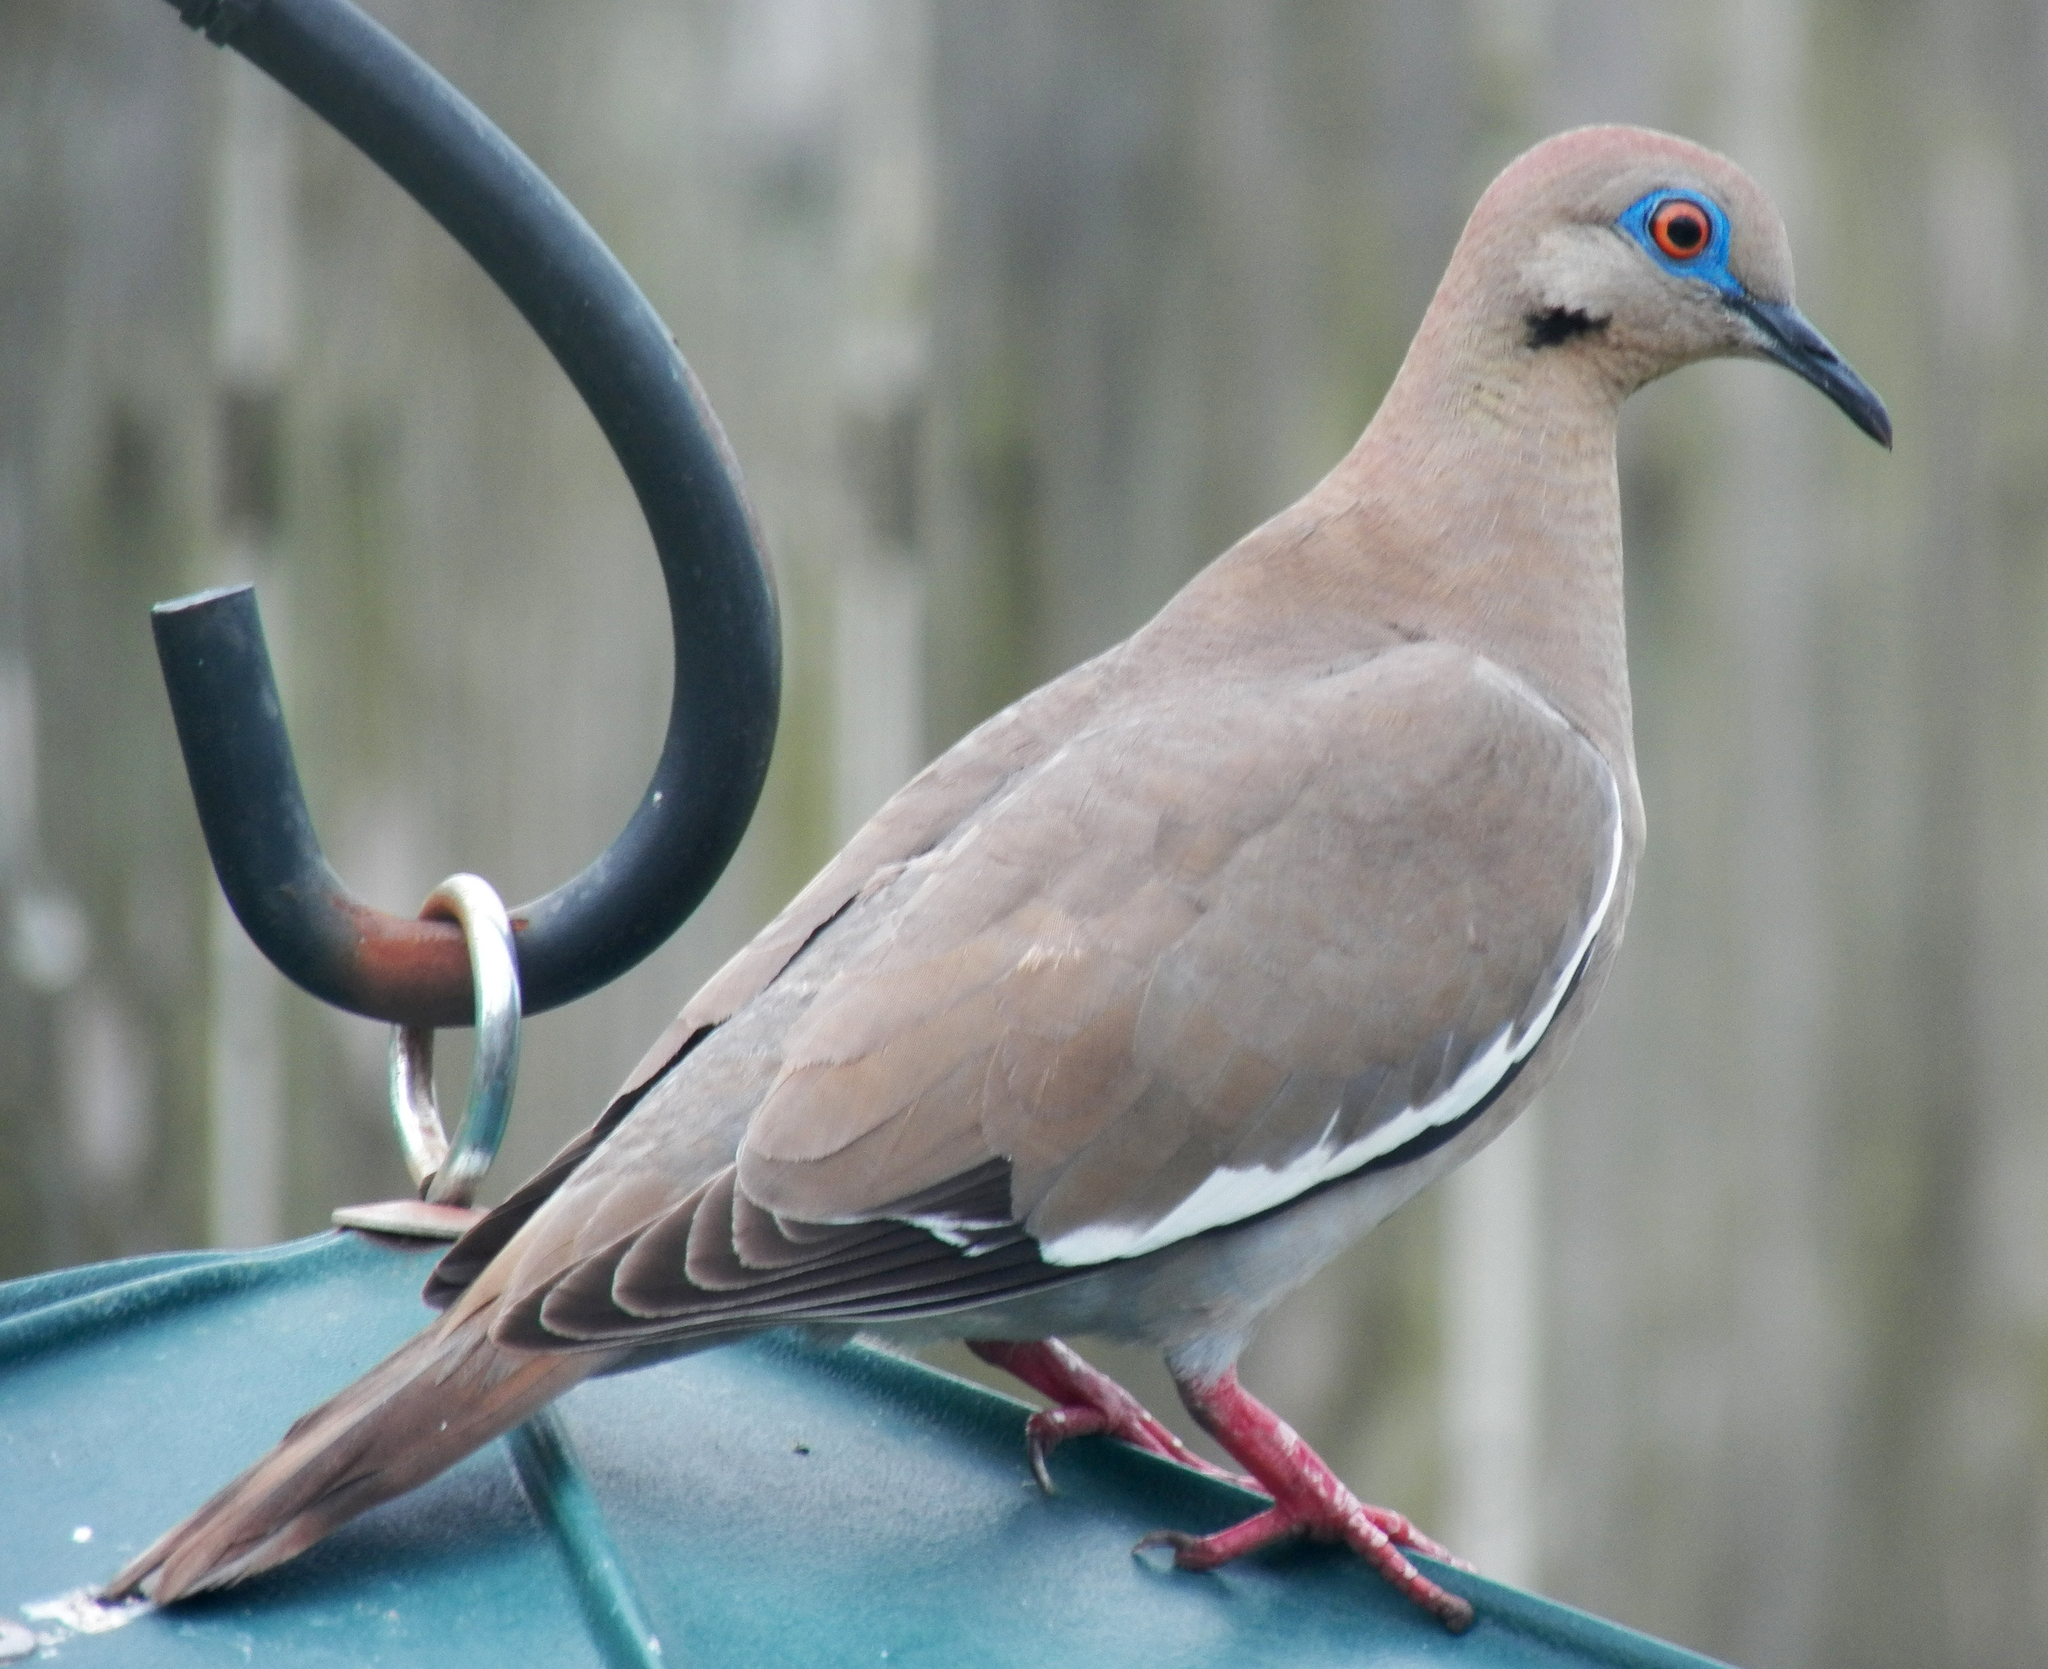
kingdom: Animalia
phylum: Chordata
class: Aves
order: Columbiformes
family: Columbidae
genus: Zenaida
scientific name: Zenaida asiatica
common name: White-winged dove
